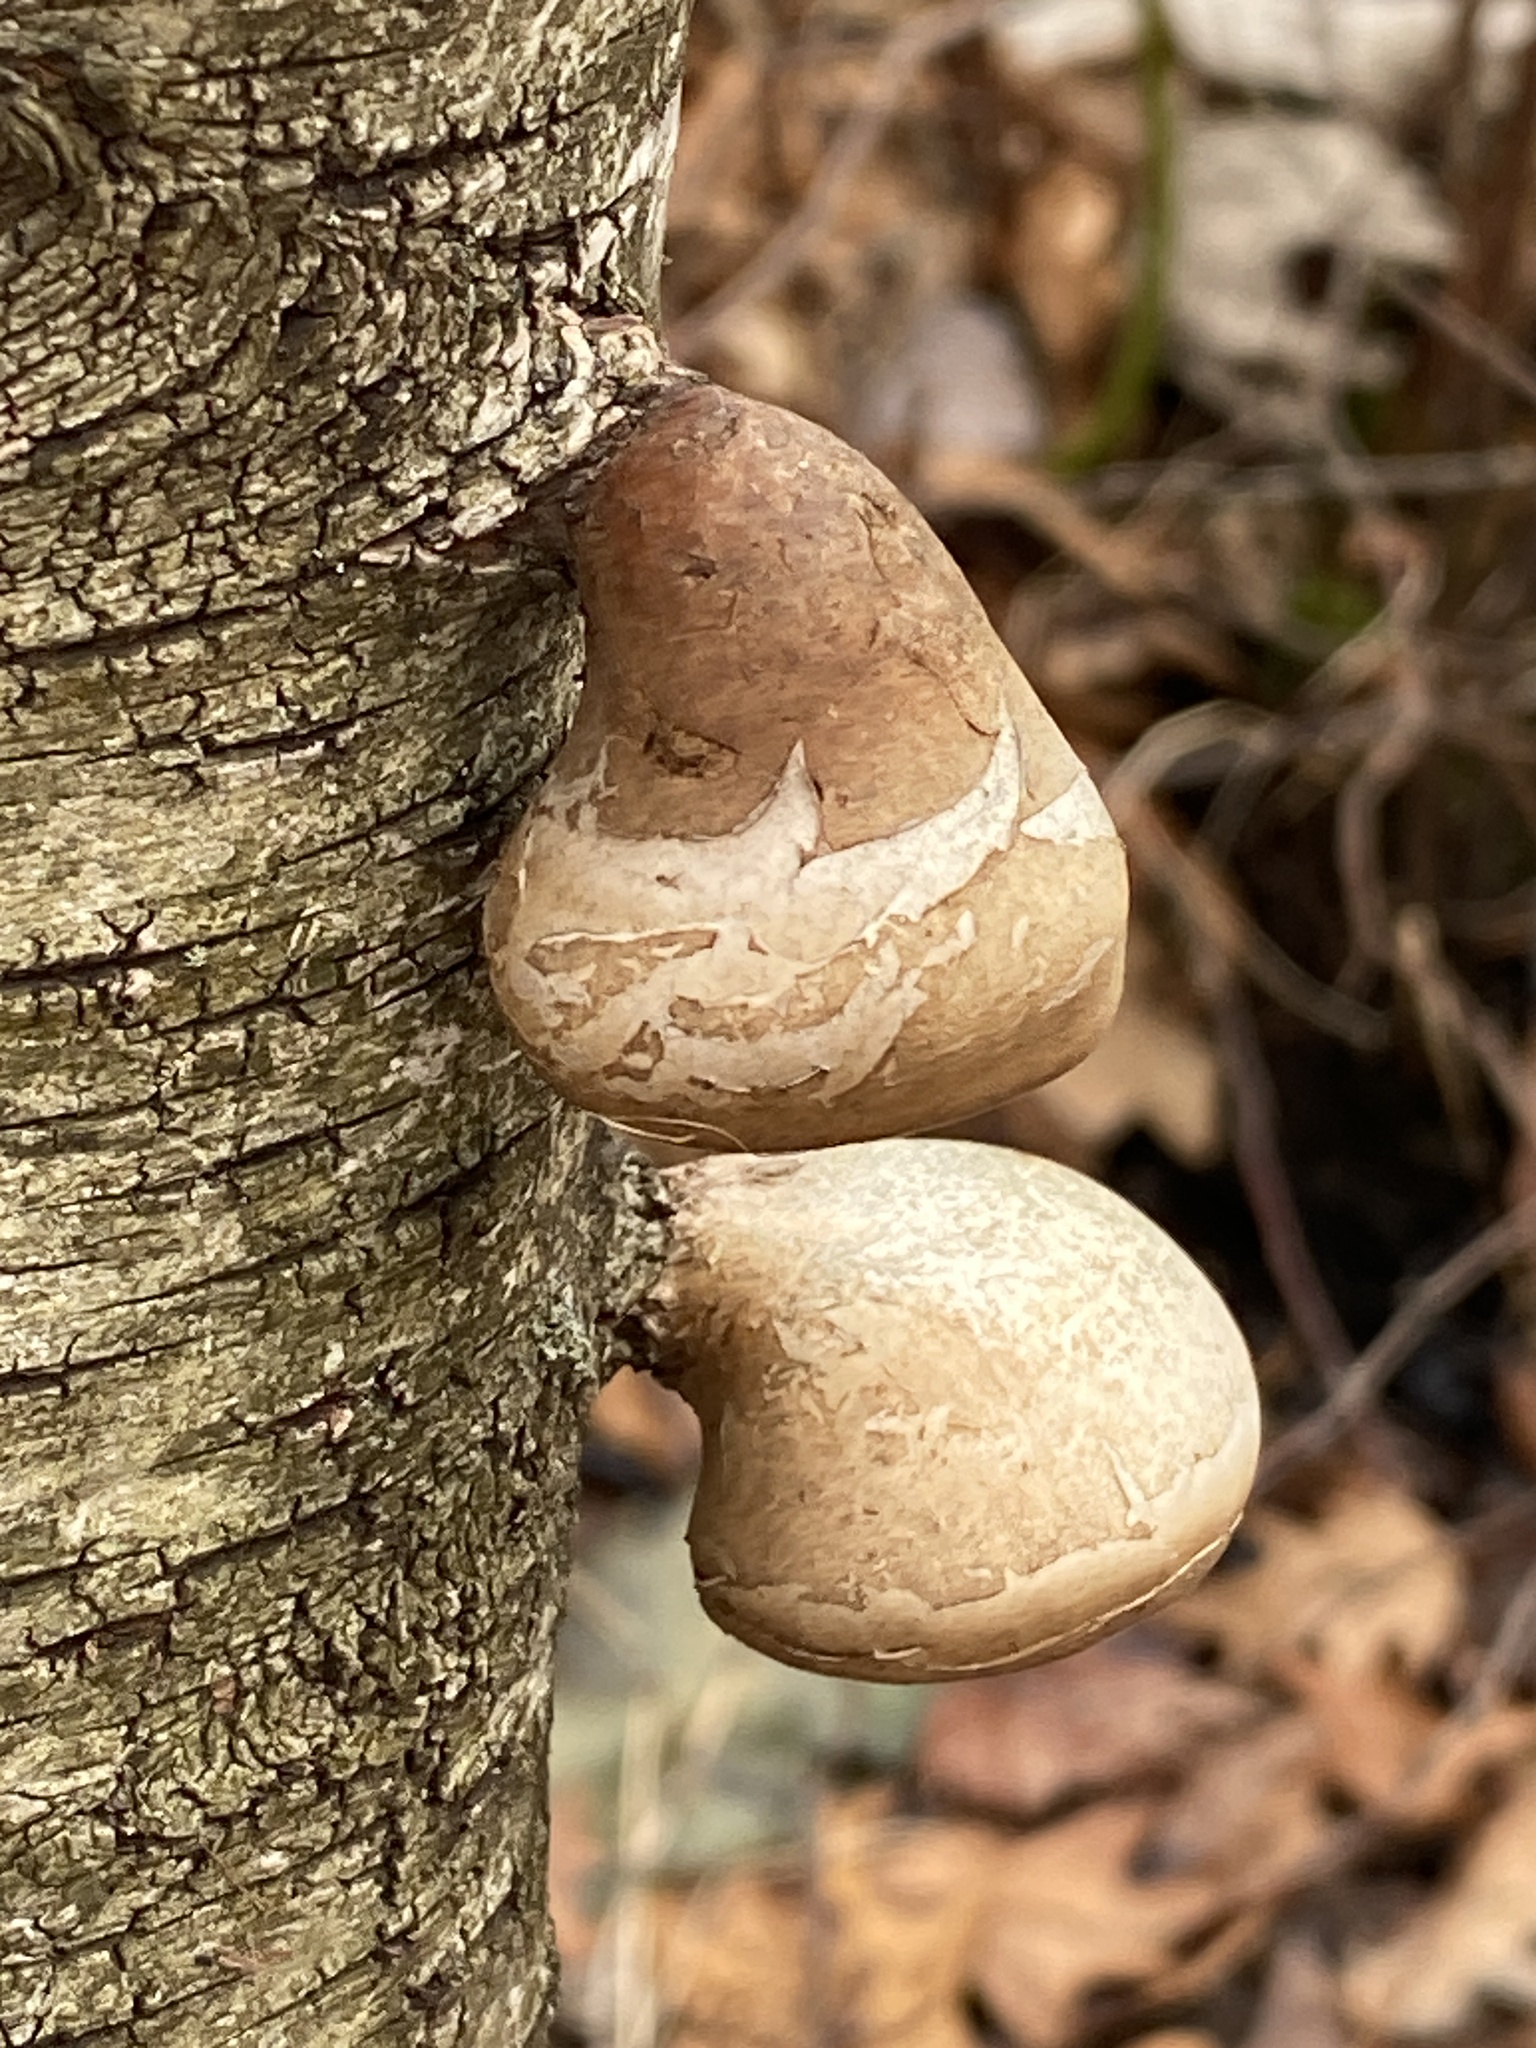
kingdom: Fungi
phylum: Basidiomycota
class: Agaricomycetes
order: Polyporales
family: Fomitopsidaceae
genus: Fomitopsis
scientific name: Fomitopsis betulina
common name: Birch polypore
